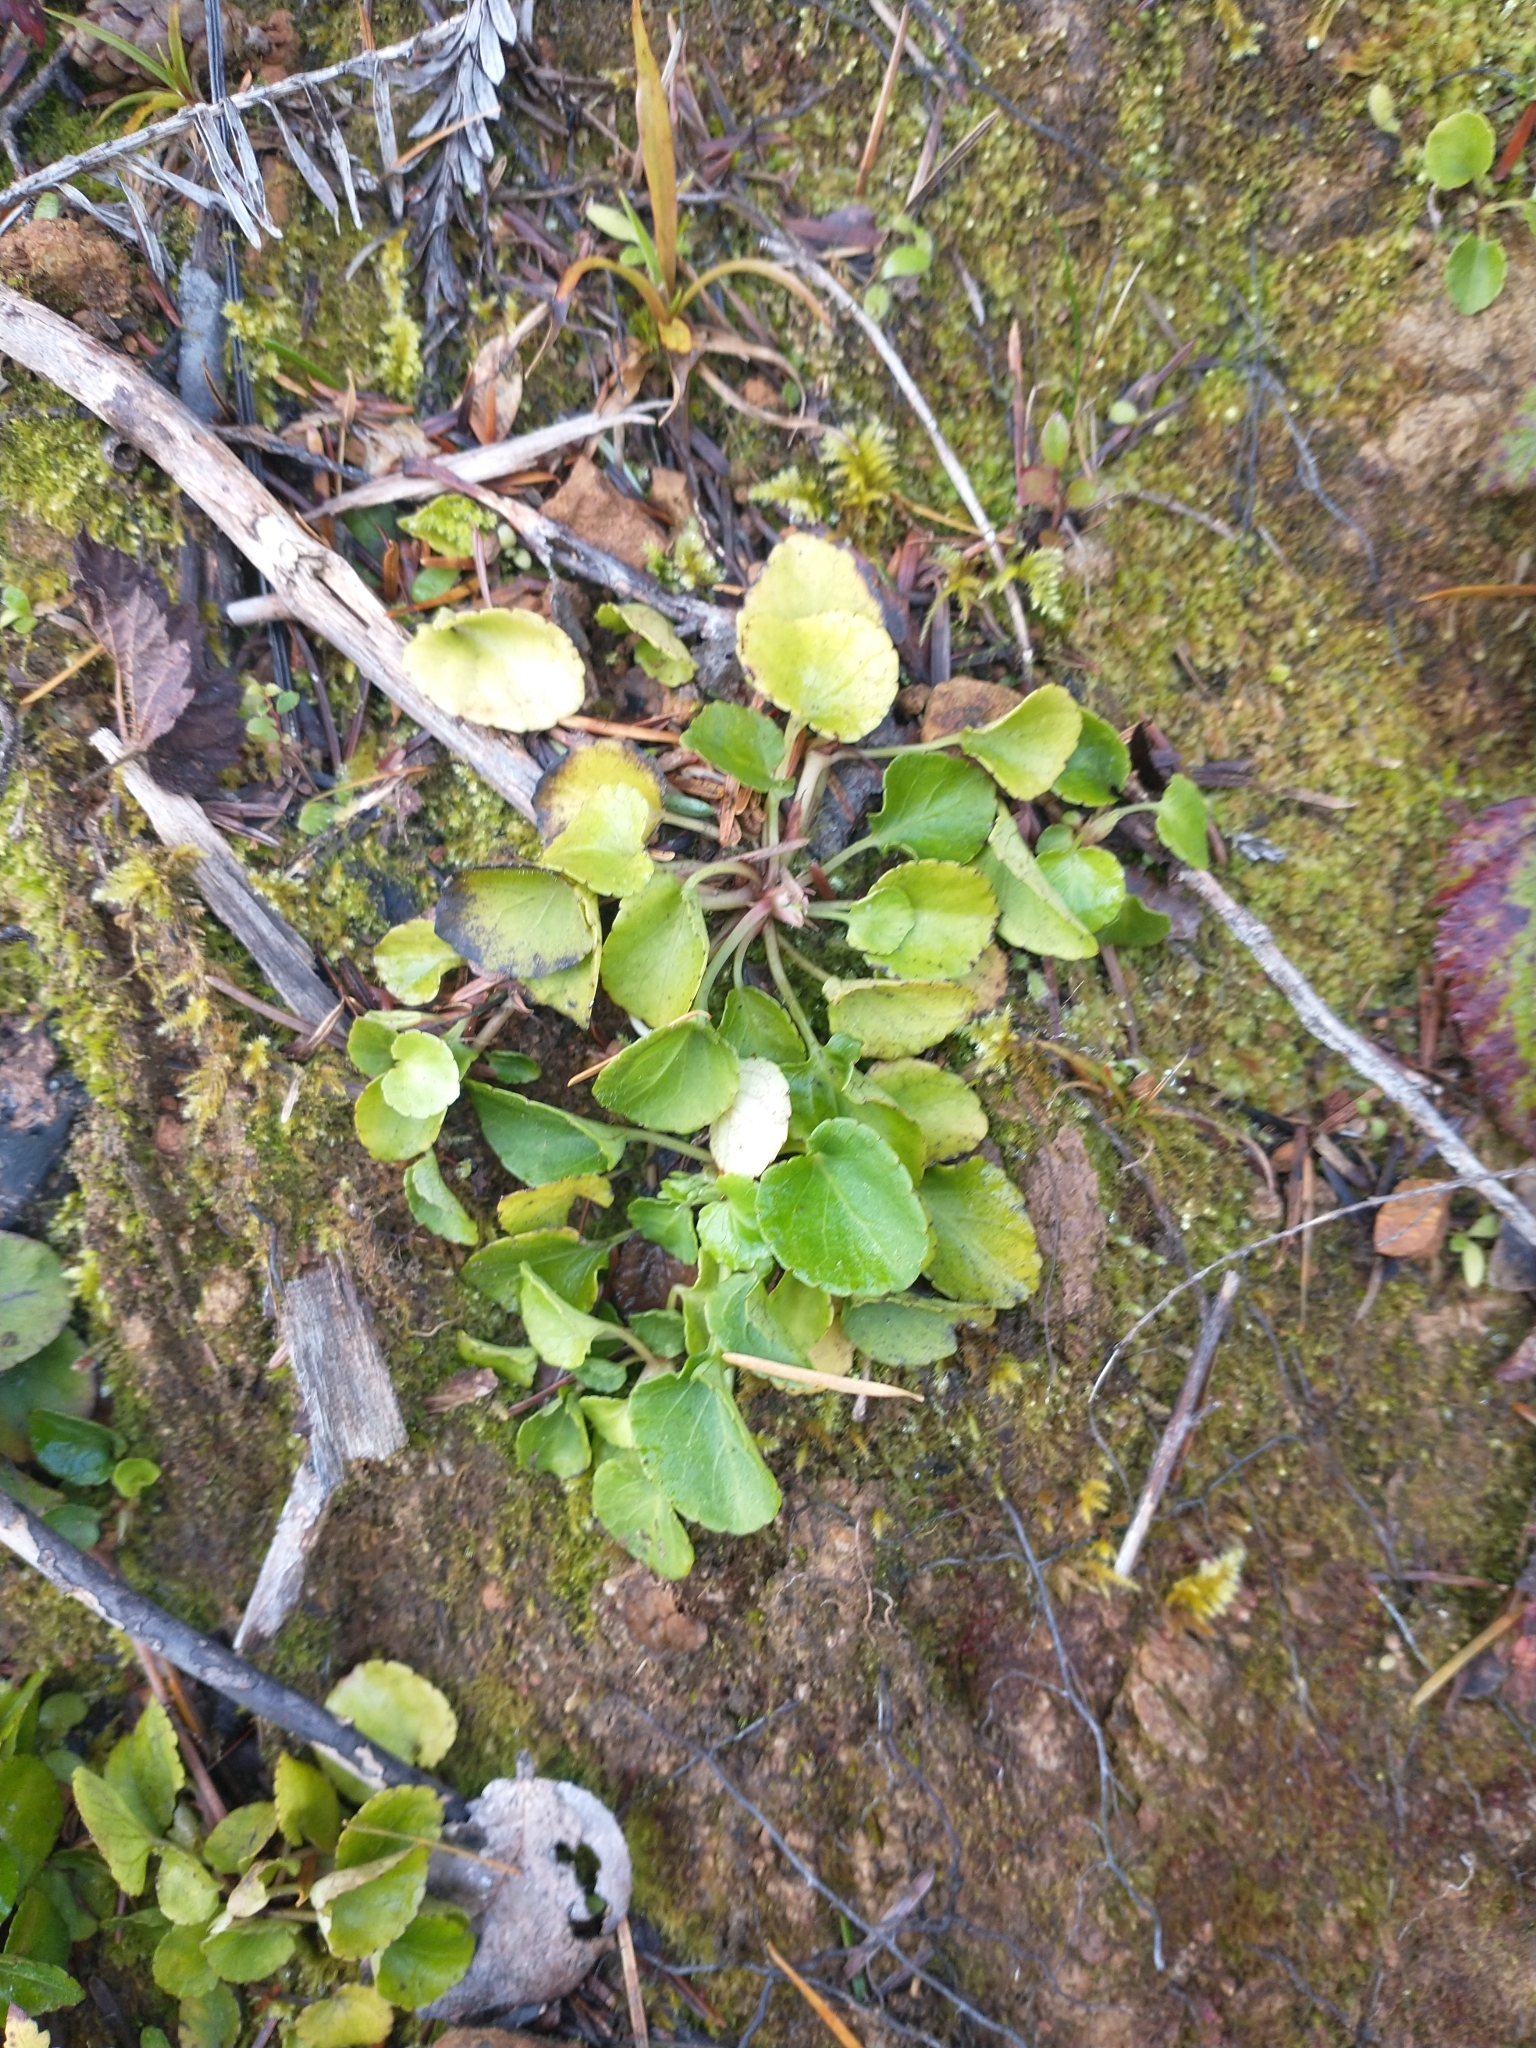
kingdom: Plantae
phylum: Tracheophyta
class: Magnoliopsida
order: Malpighiales
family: Violaceae
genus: Viola
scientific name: Viola sempervirens
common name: Evergreen violet
